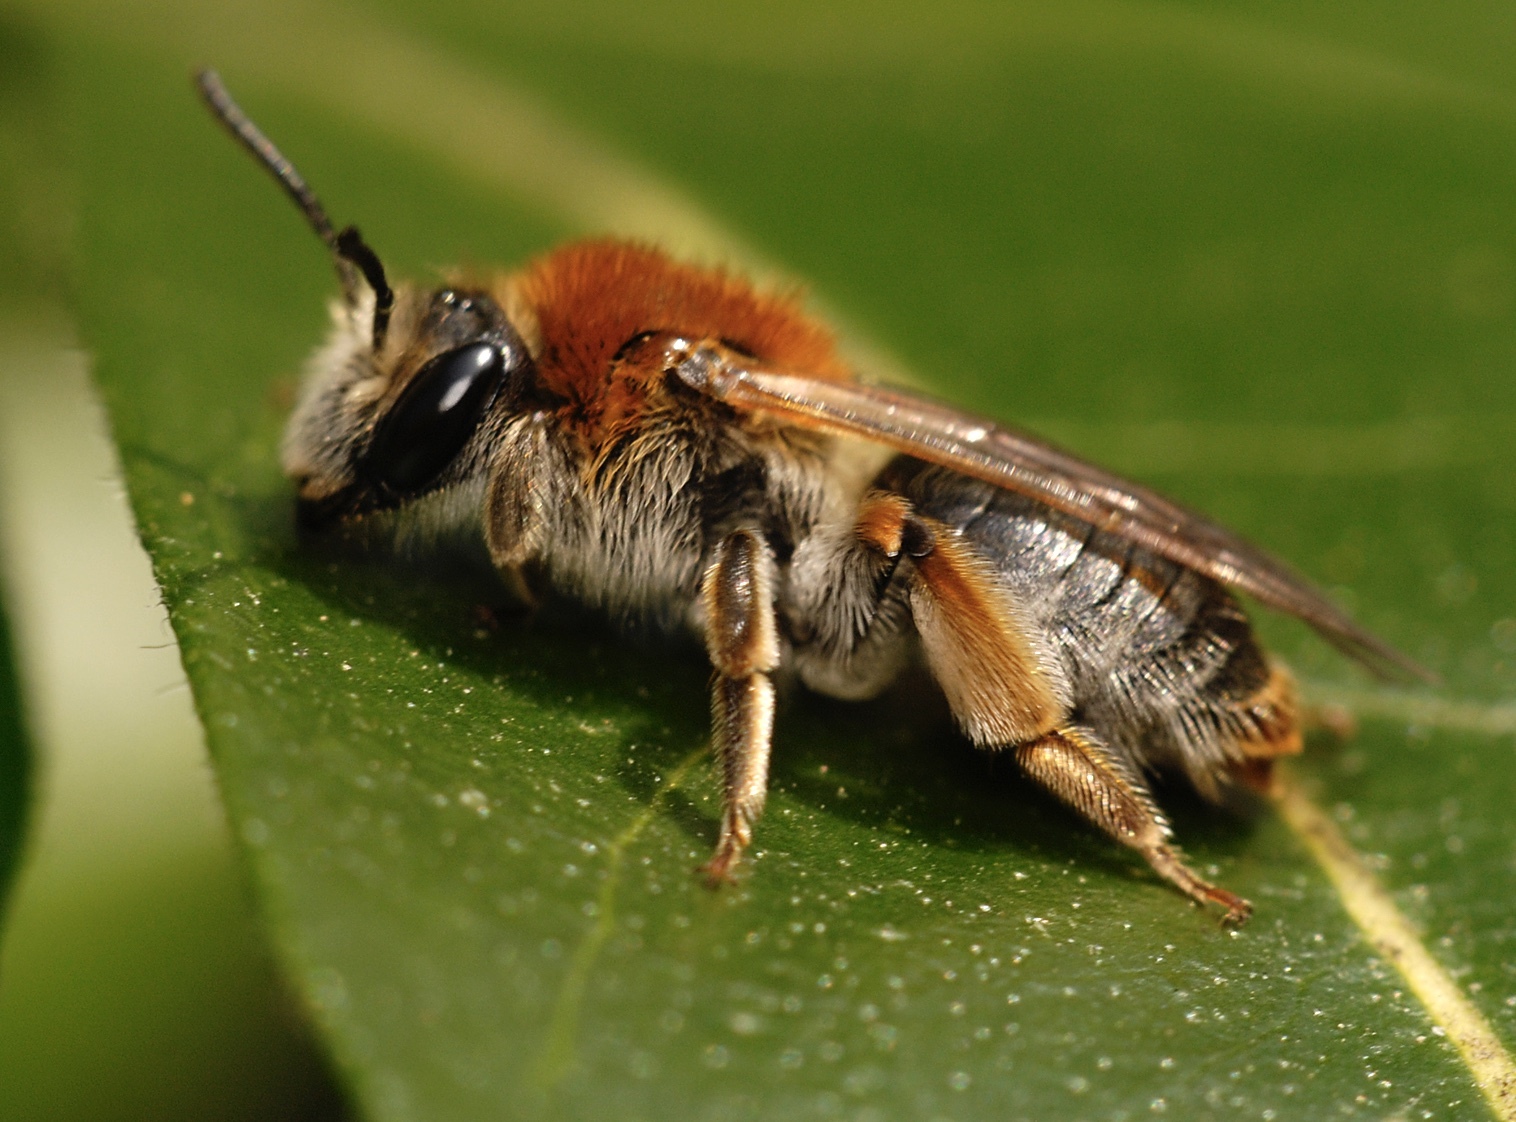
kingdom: Animalia
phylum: Arthropoda
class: Insecta
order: Hymenoptera
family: Andrenidae
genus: Andrena
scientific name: Andrena haemorrhoa
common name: Early mining bee
